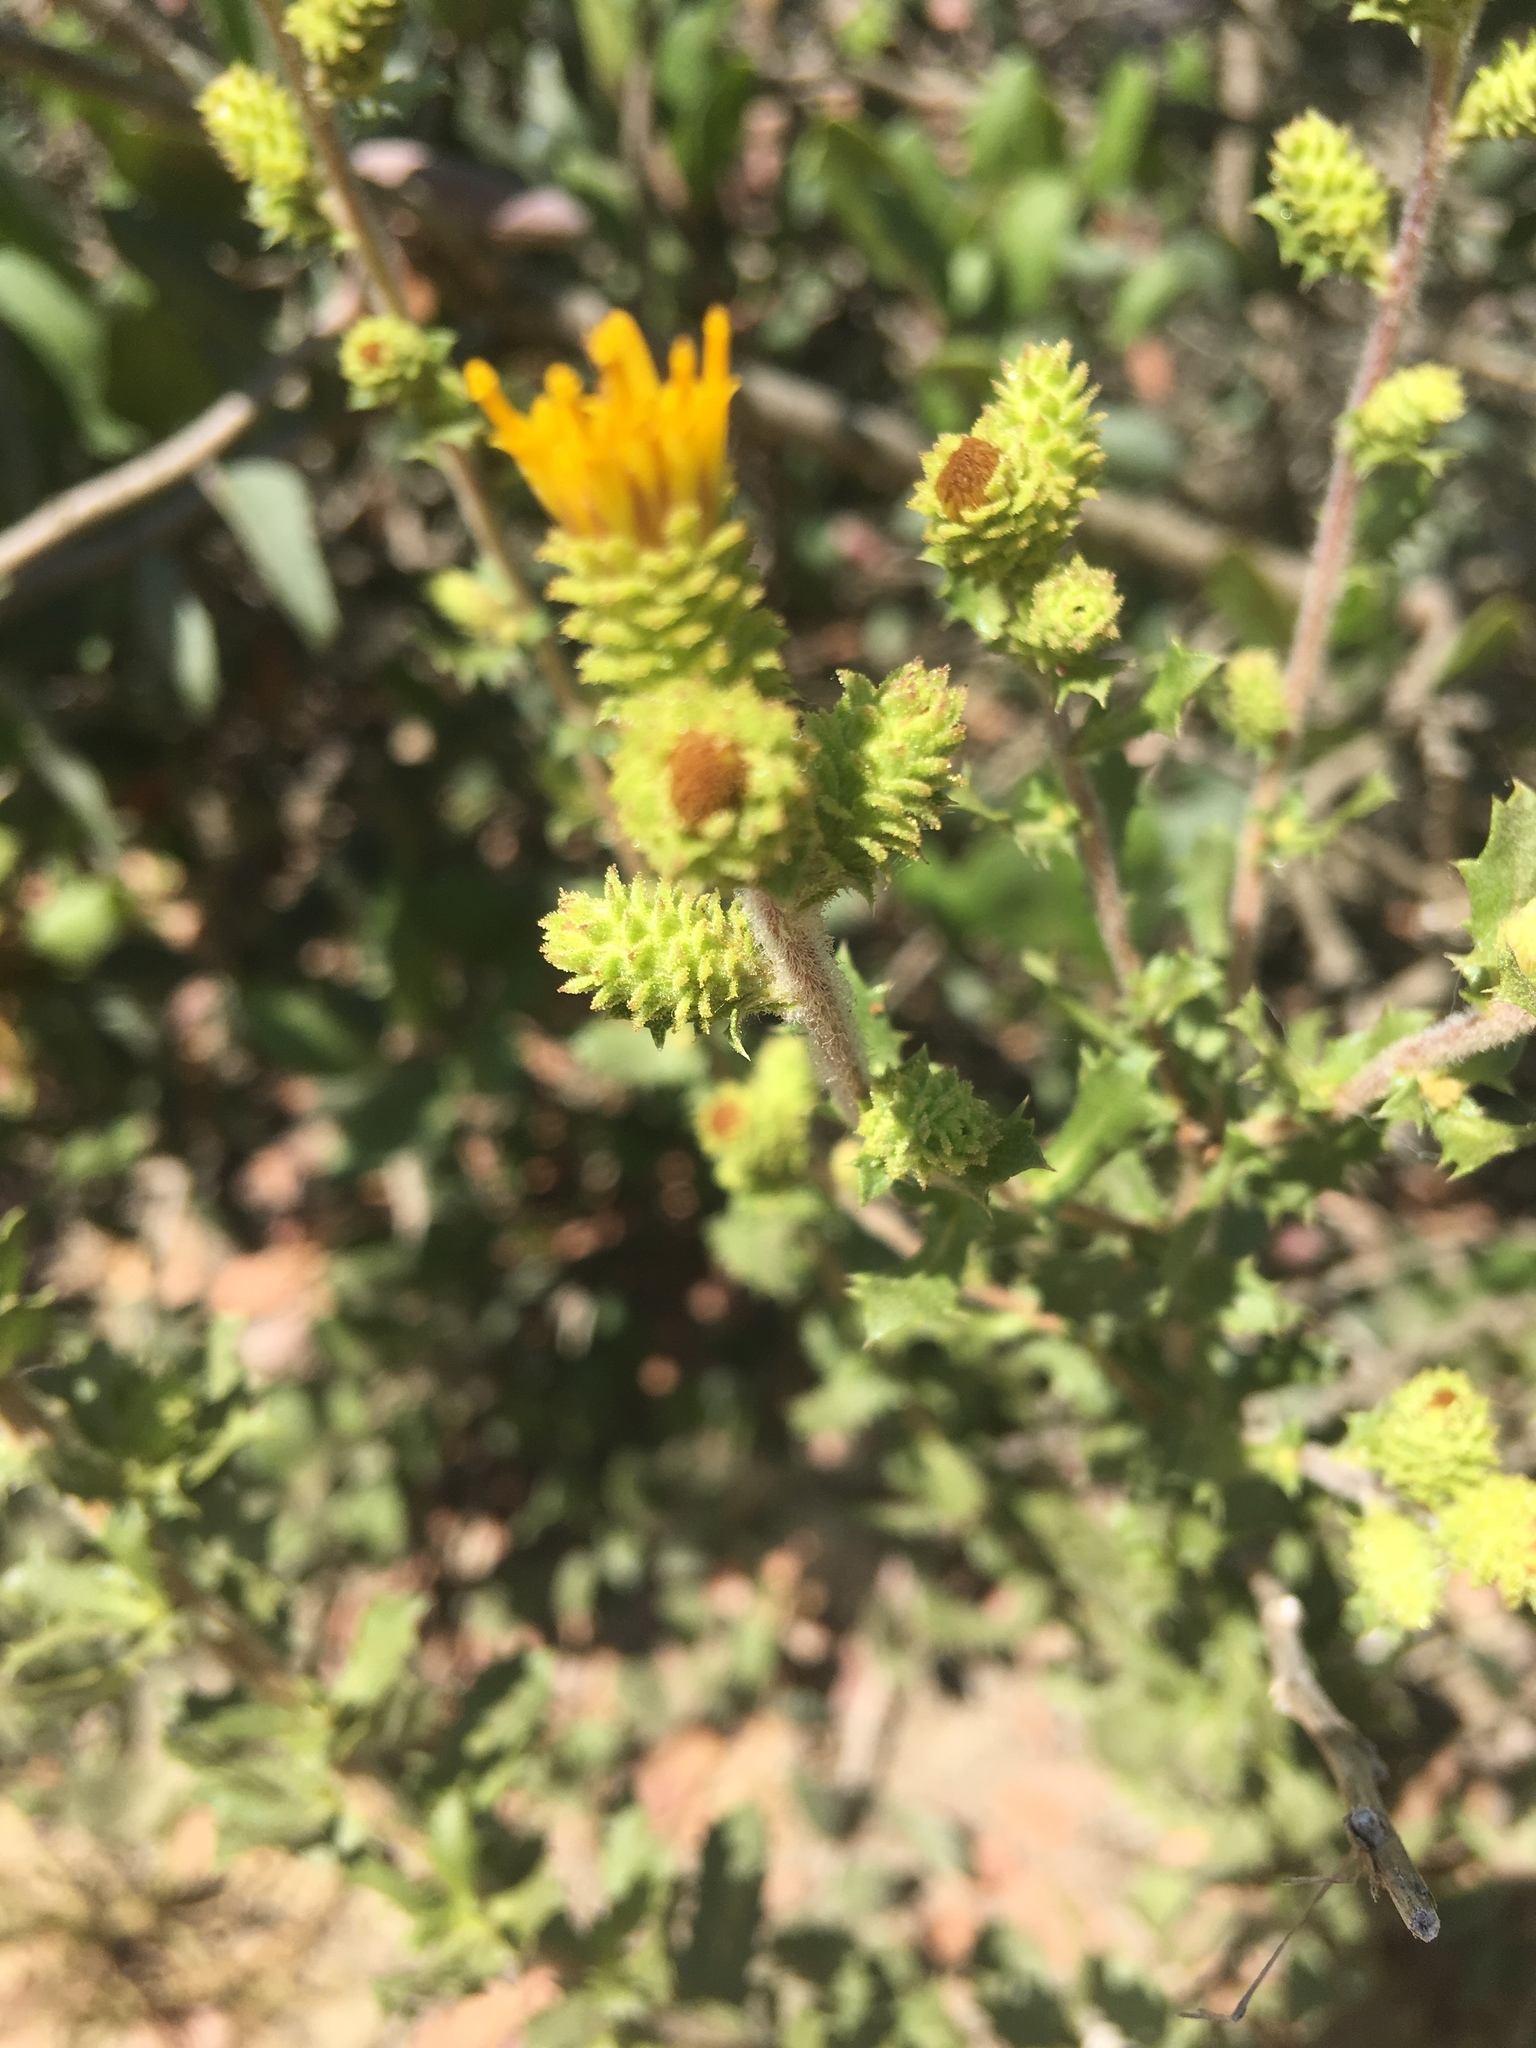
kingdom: Plantae
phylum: Tracheophyta
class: Magnoliopsida
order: Asterales
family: Asteraceae
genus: Hazardia
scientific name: Hazardia squarrosa
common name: Saw-tooth goldenbush
